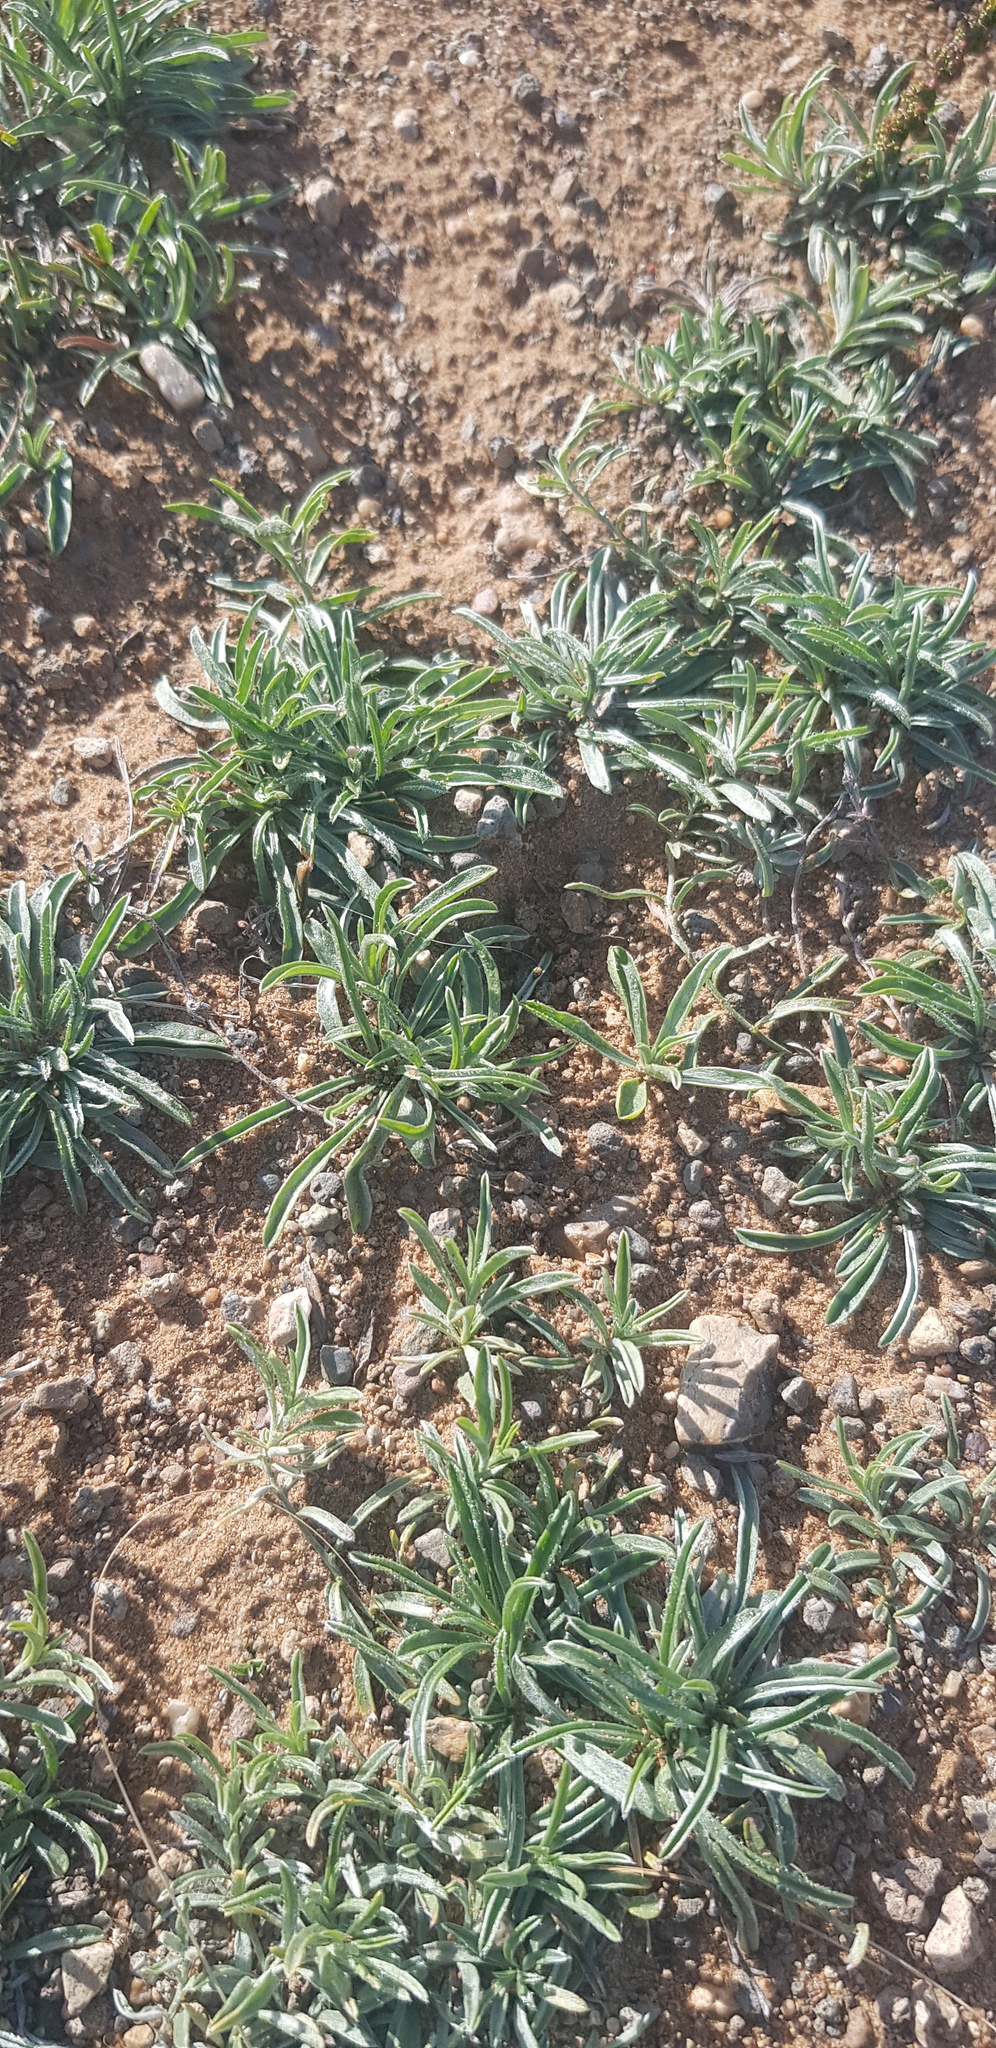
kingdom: Plantae
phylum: Tracheophyta
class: Magnoliopsida
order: Solanales
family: Convolvulaceae
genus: Convolvulus
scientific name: Convolvulus ammannii
